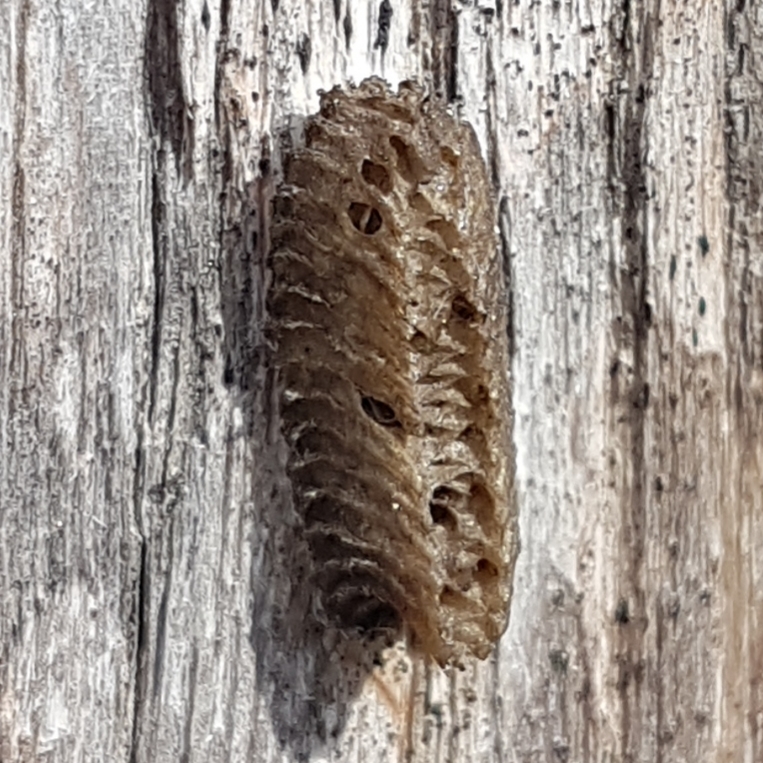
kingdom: Animalia
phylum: Arthropoda
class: Insecta
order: Mantodea
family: Eremiaphilidae
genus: Iris
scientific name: Iris oratoria
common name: Mediterranean mantis
